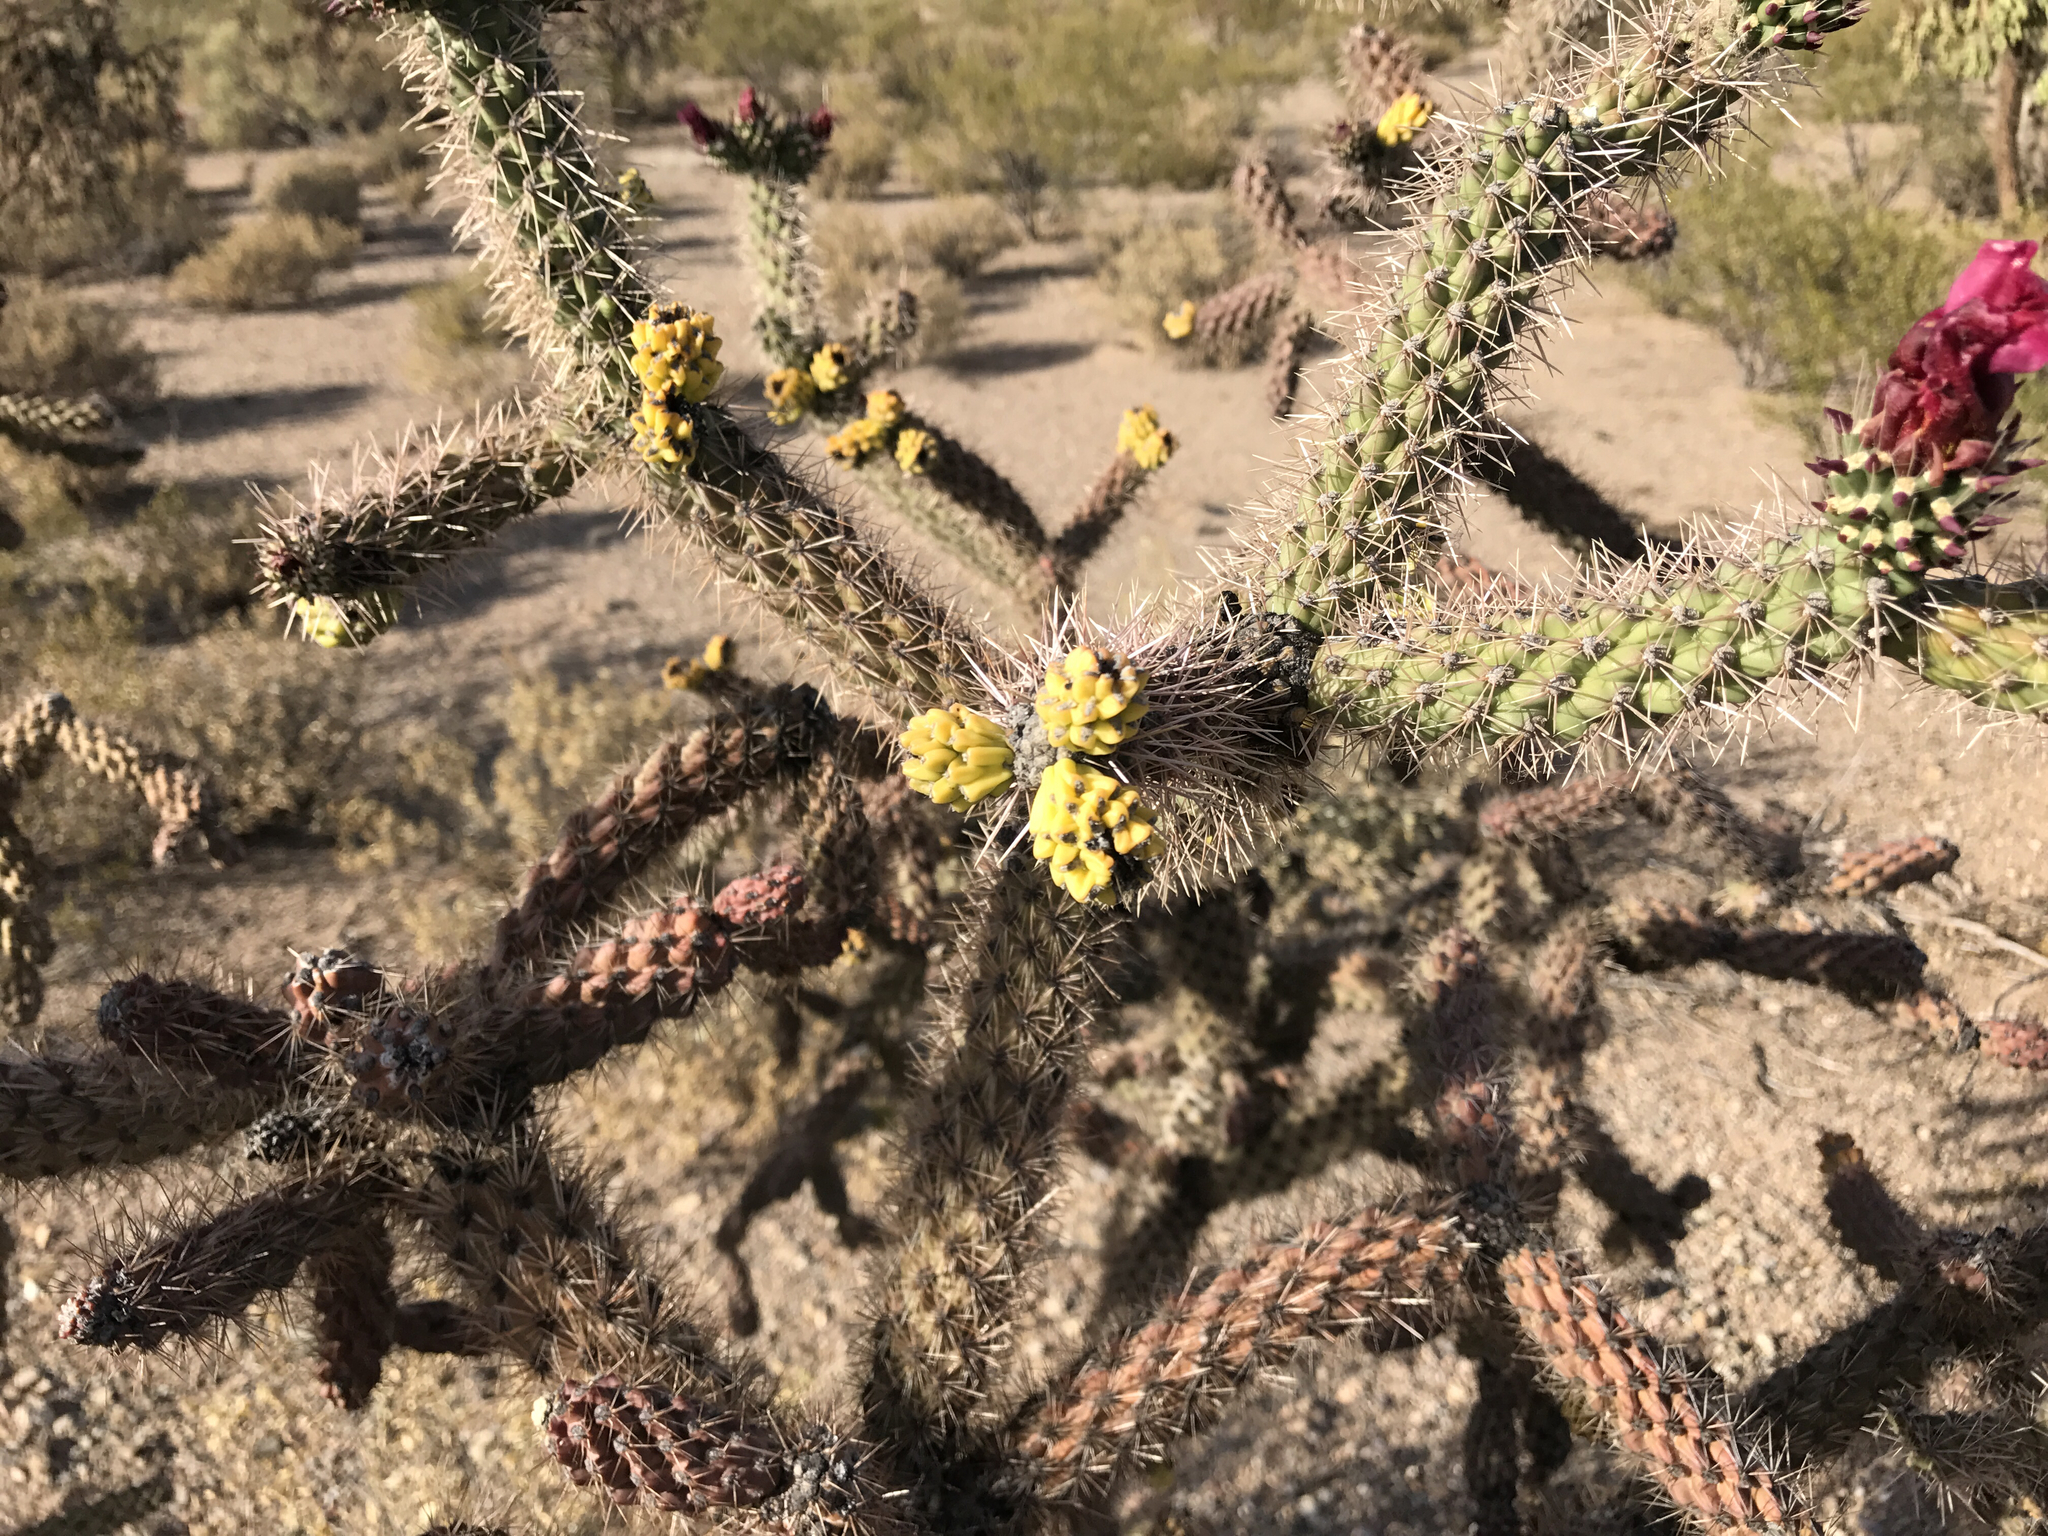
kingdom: Plantae
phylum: Tracheophyta
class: Magnoliopsida
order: Caryophyllales
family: Cactaceae
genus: Cylindropuntia
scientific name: Cylindropuntia imbricata
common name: Candelabrum cactus
